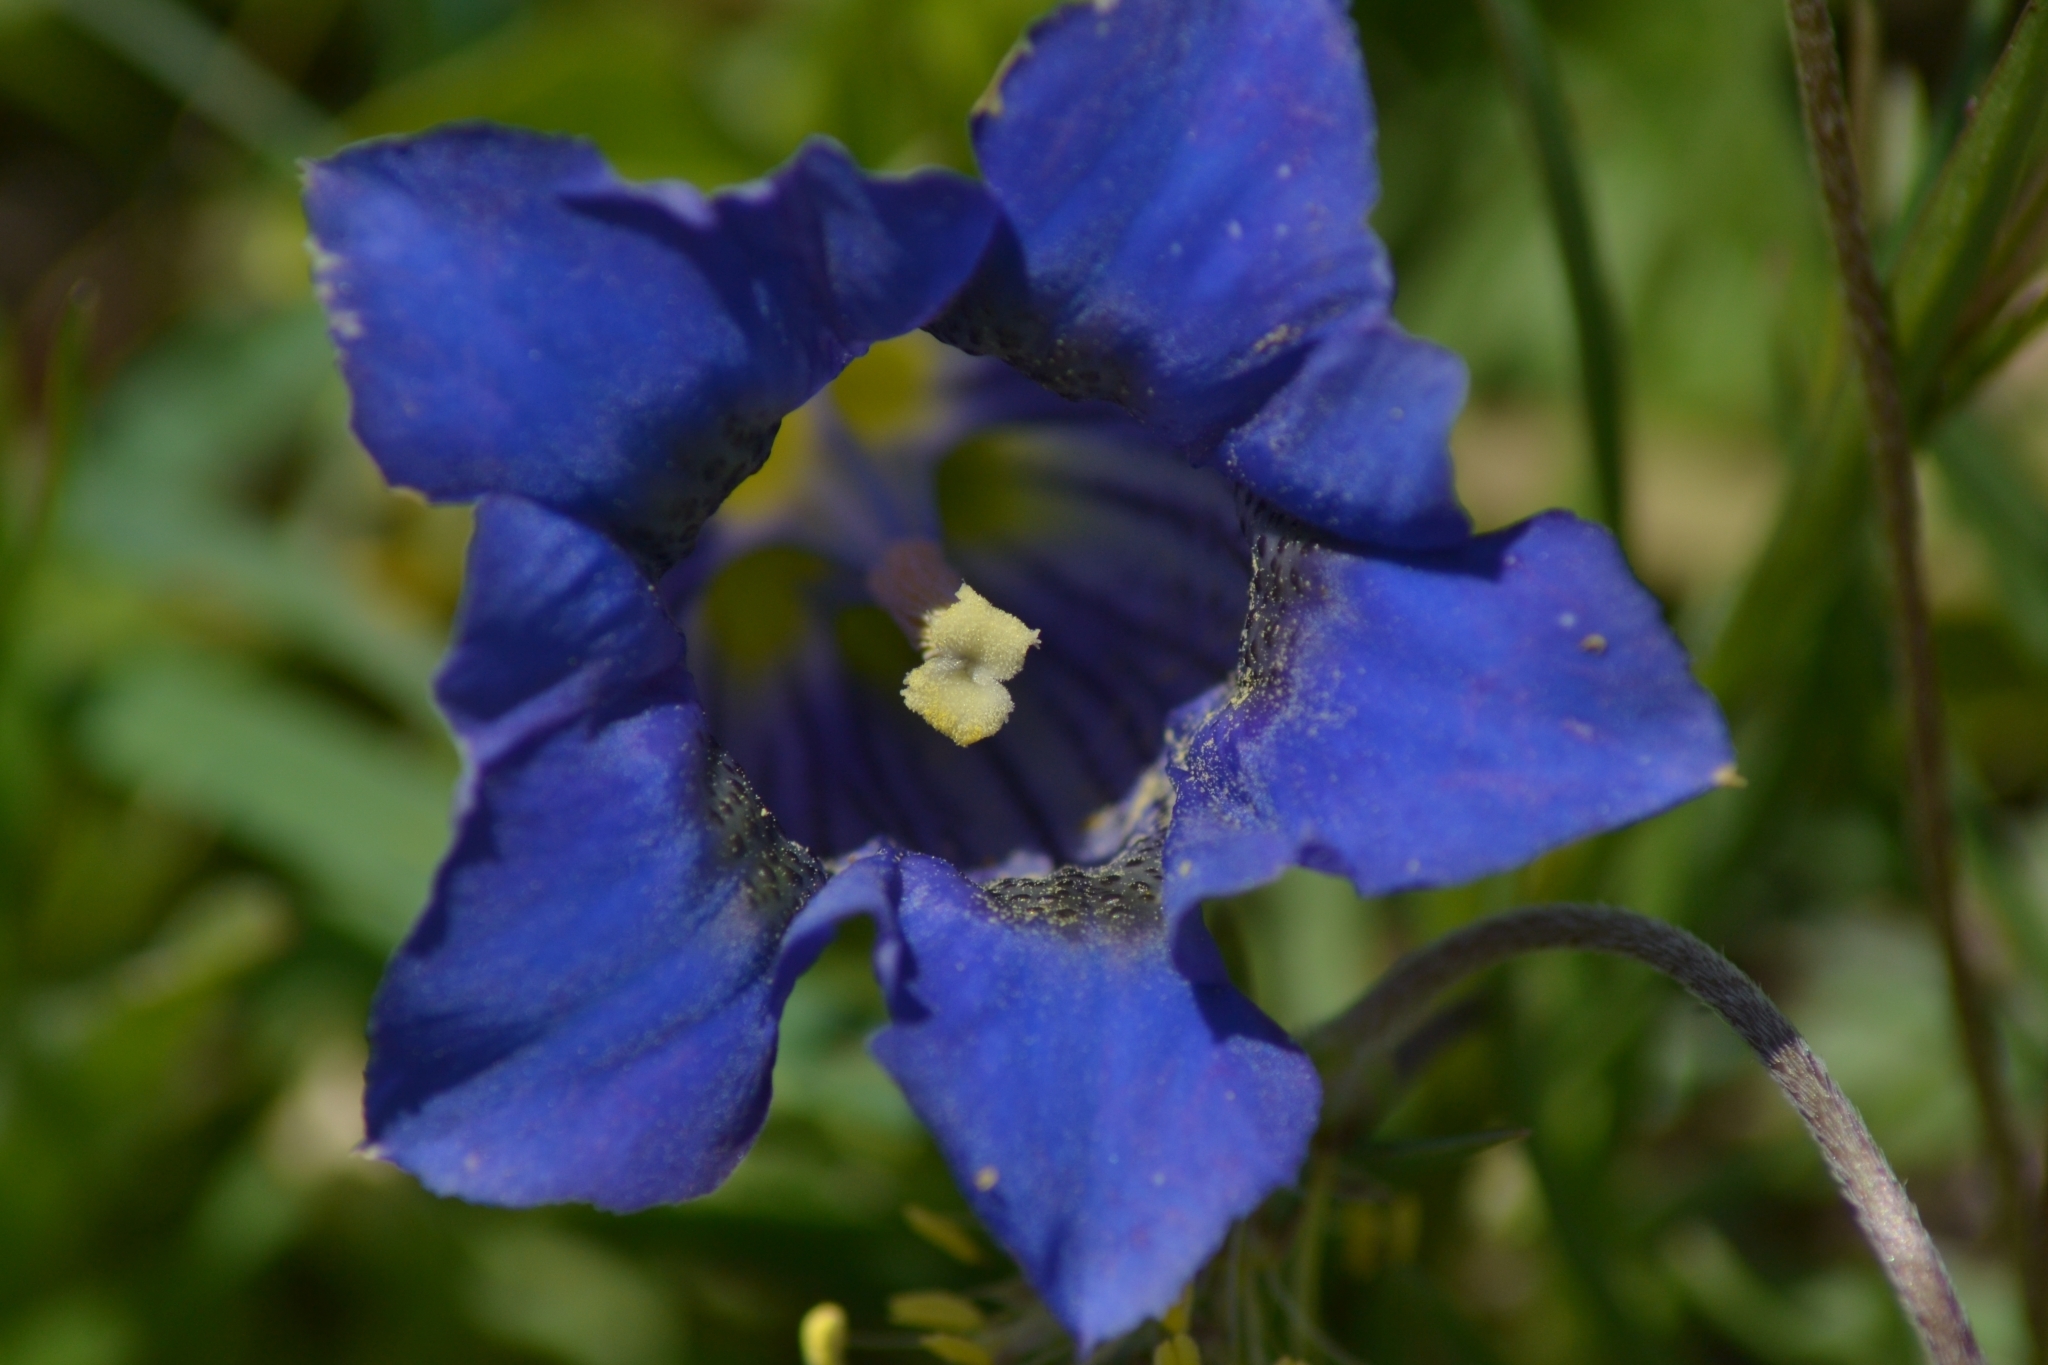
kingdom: Plantae
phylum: Tracheophyta
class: Magnoliopsida
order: Gentianales
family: Gentianaceae
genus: Gentiana
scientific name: Gentiana acaulis
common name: Trumpet gentian
